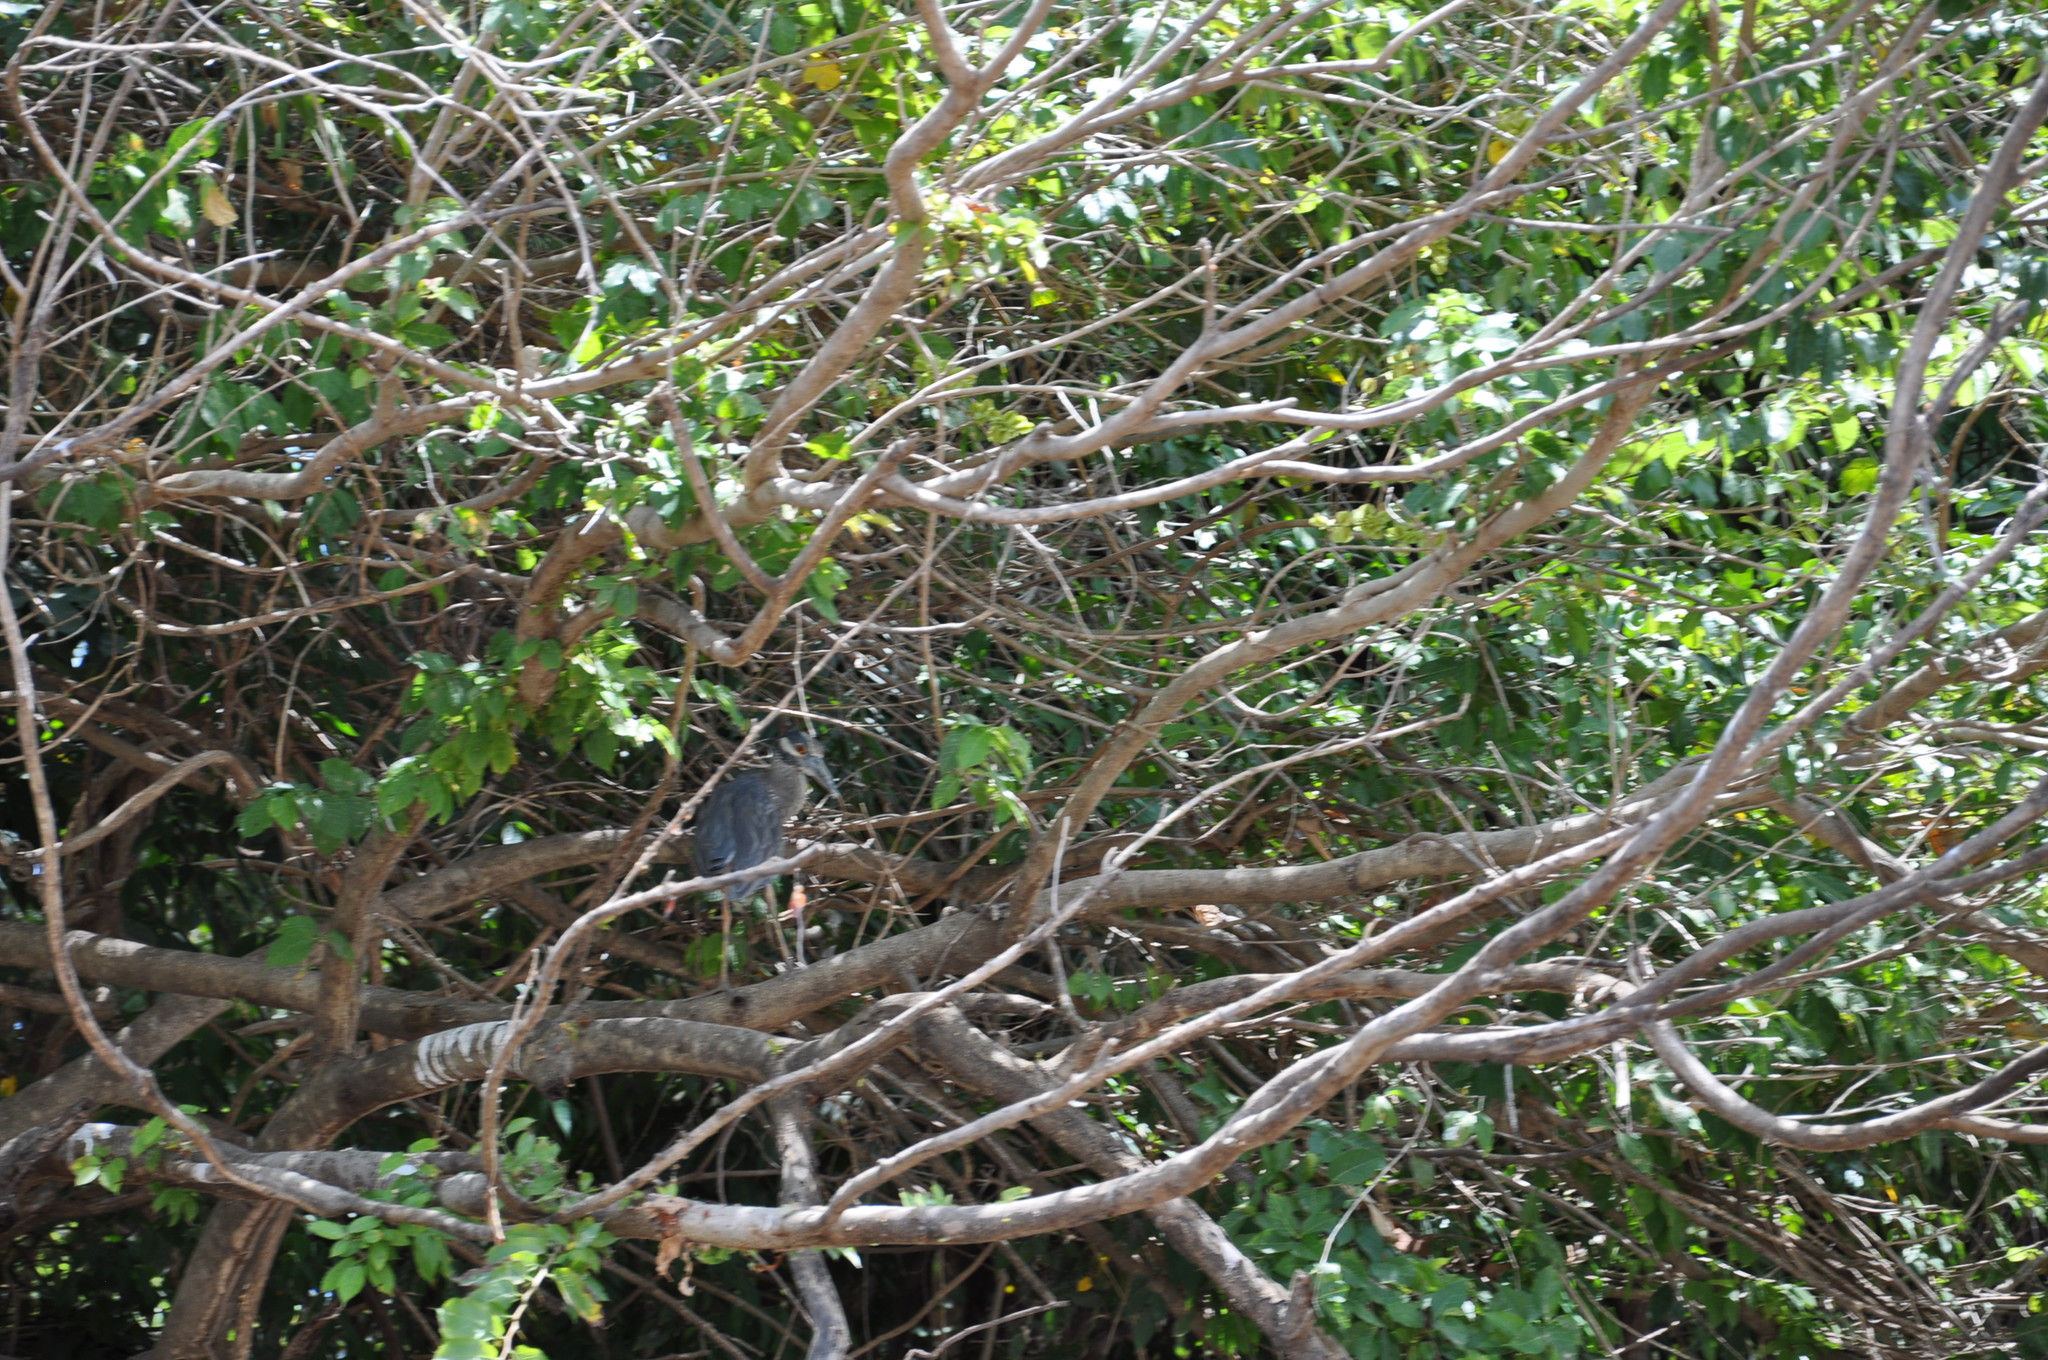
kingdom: Animalia
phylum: Chordata
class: Aves
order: Pelecaniformes
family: Ardeidae
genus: Nyctanassa
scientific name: Nyctanassa violacea
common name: Yellow-crowned night heron
